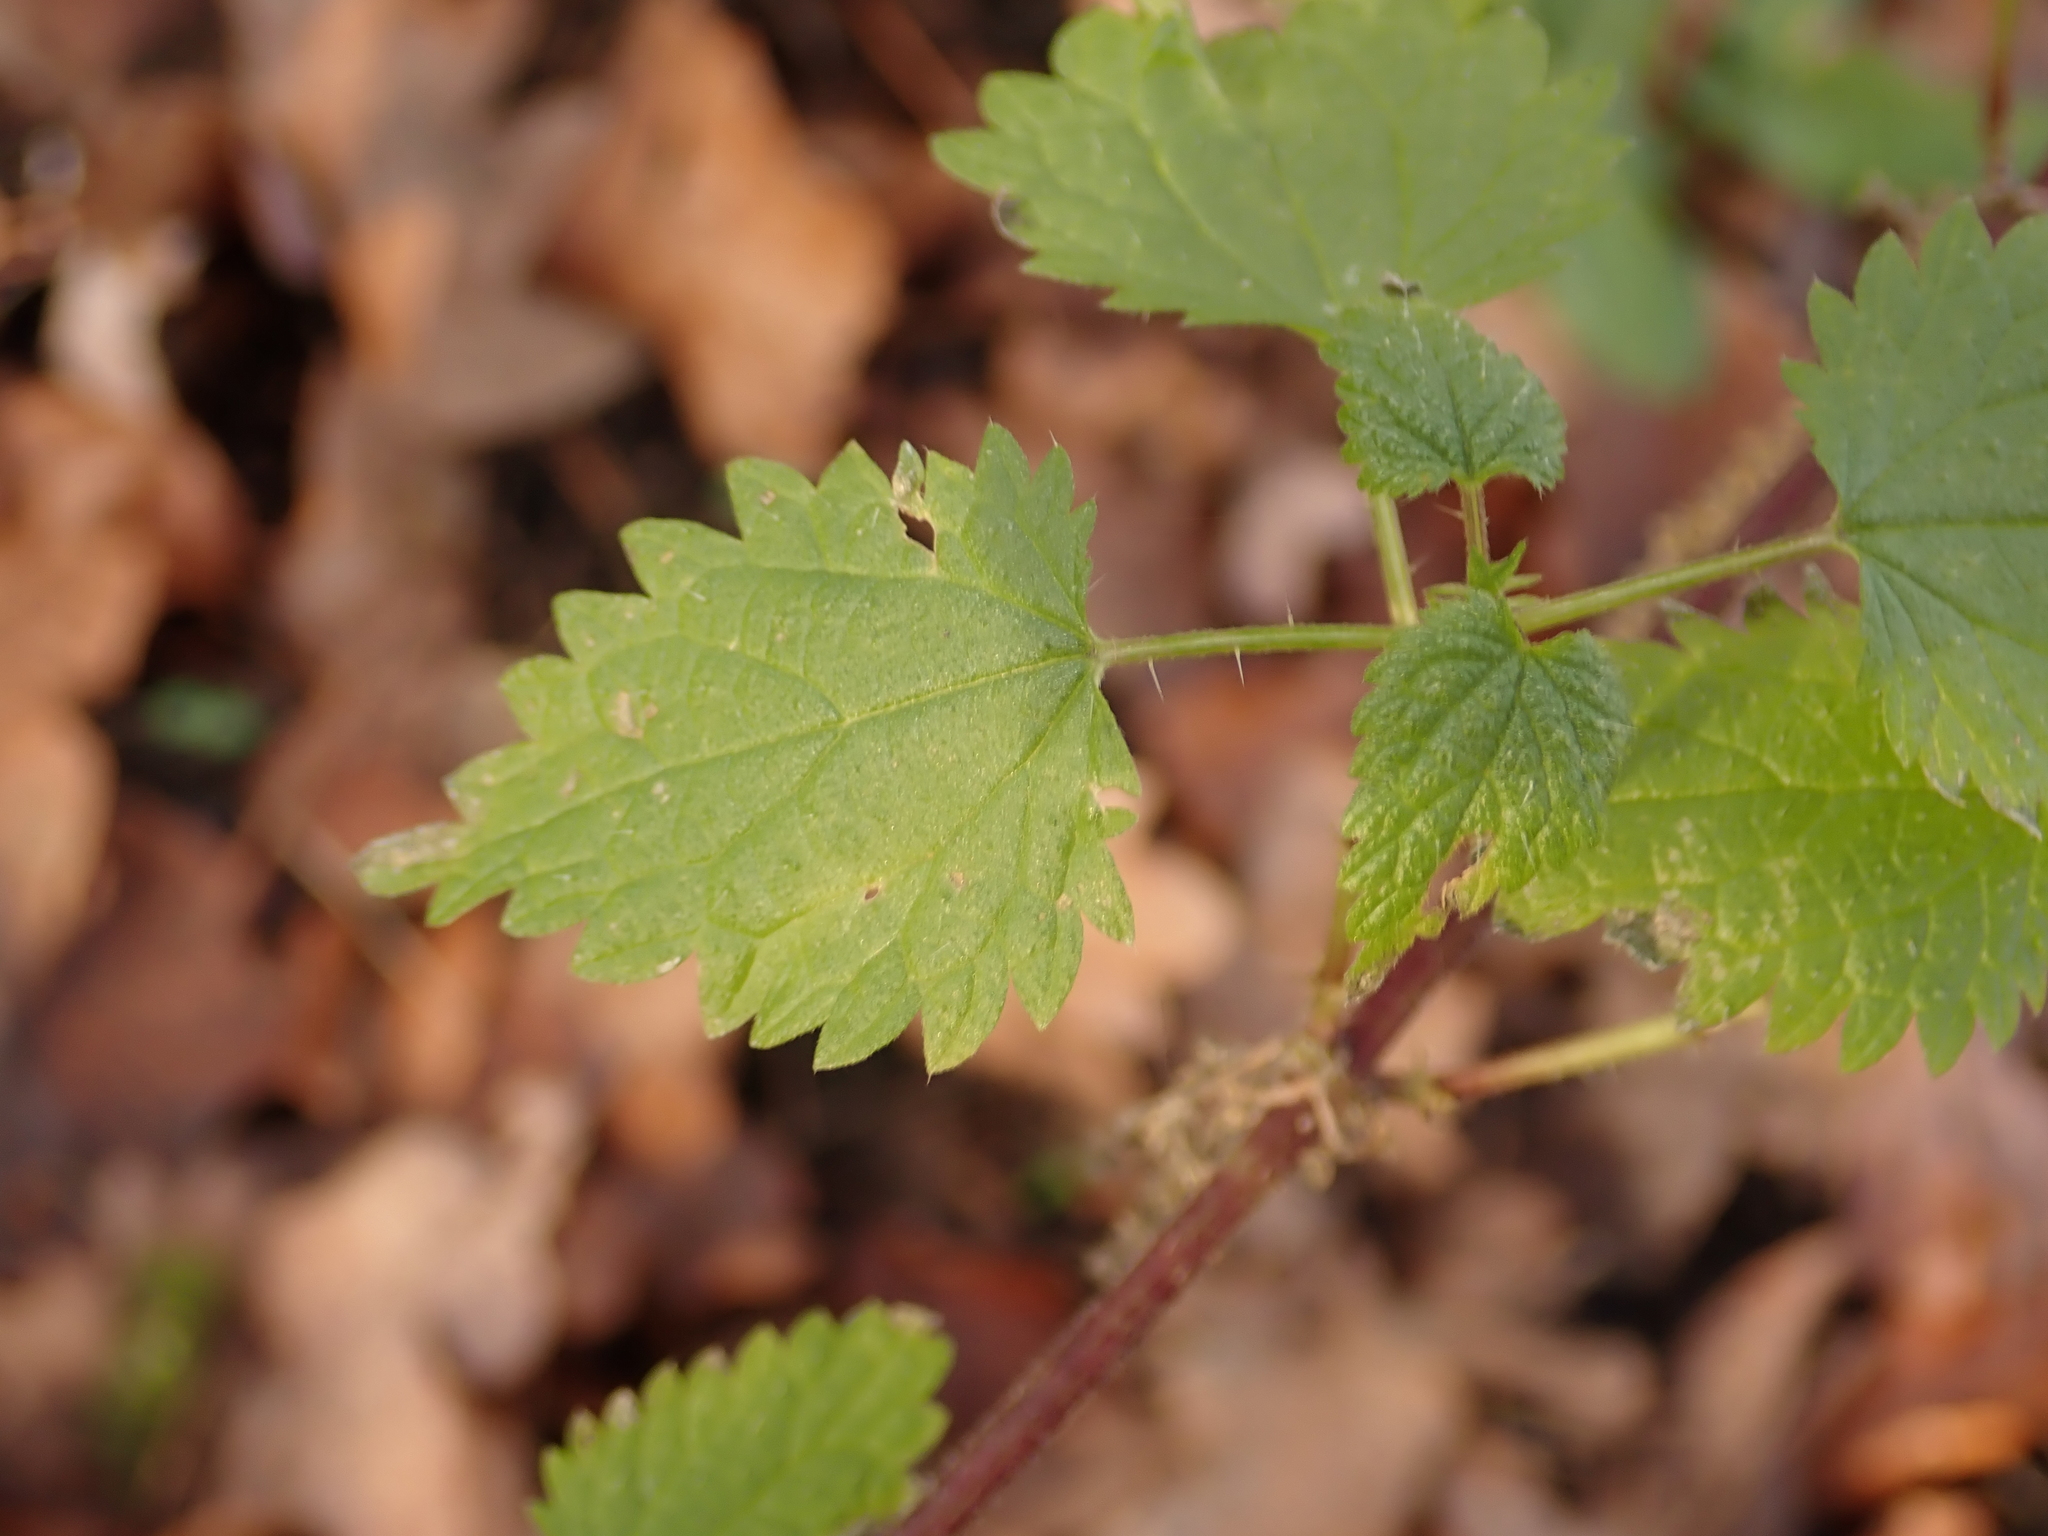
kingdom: Plantae
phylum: Tracheophyta
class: Magnoliopsida
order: Rosales
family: Urticaceae
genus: Urtica
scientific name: Urtica dioica
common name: Common nettle
